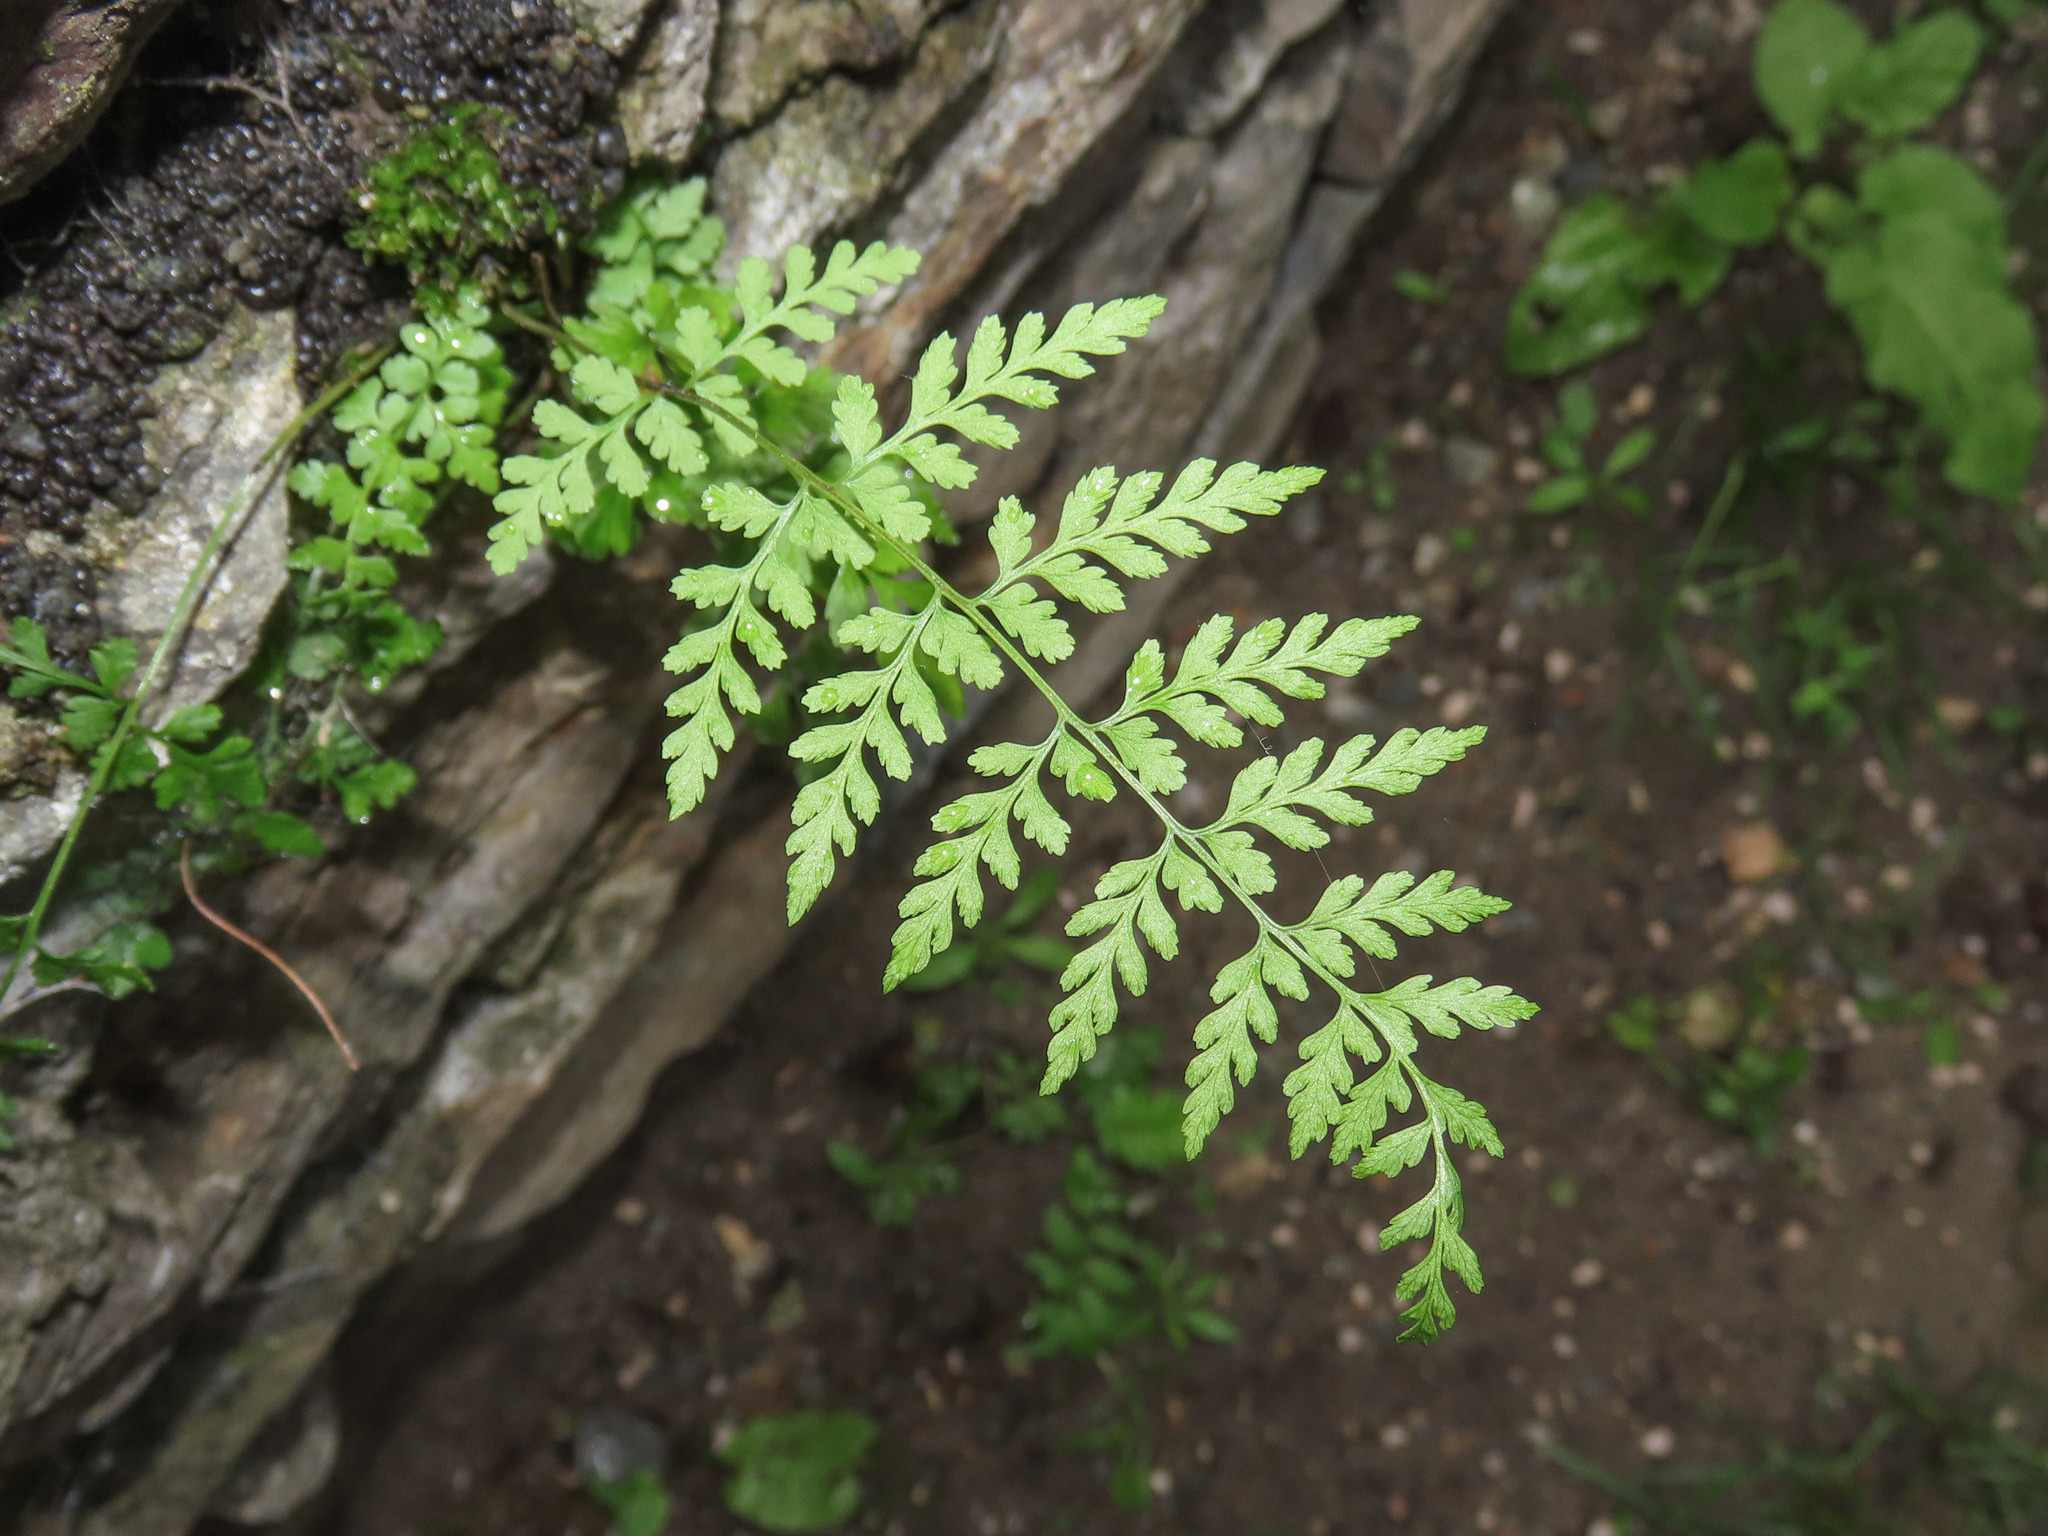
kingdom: Plantae
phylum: Tracheophyta
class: Polypodiopsida
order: Polypodiales
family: Cystopteridaceae
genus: Cystopteris
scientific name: Cystopteris fragilis
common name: Brittle bladder fern
